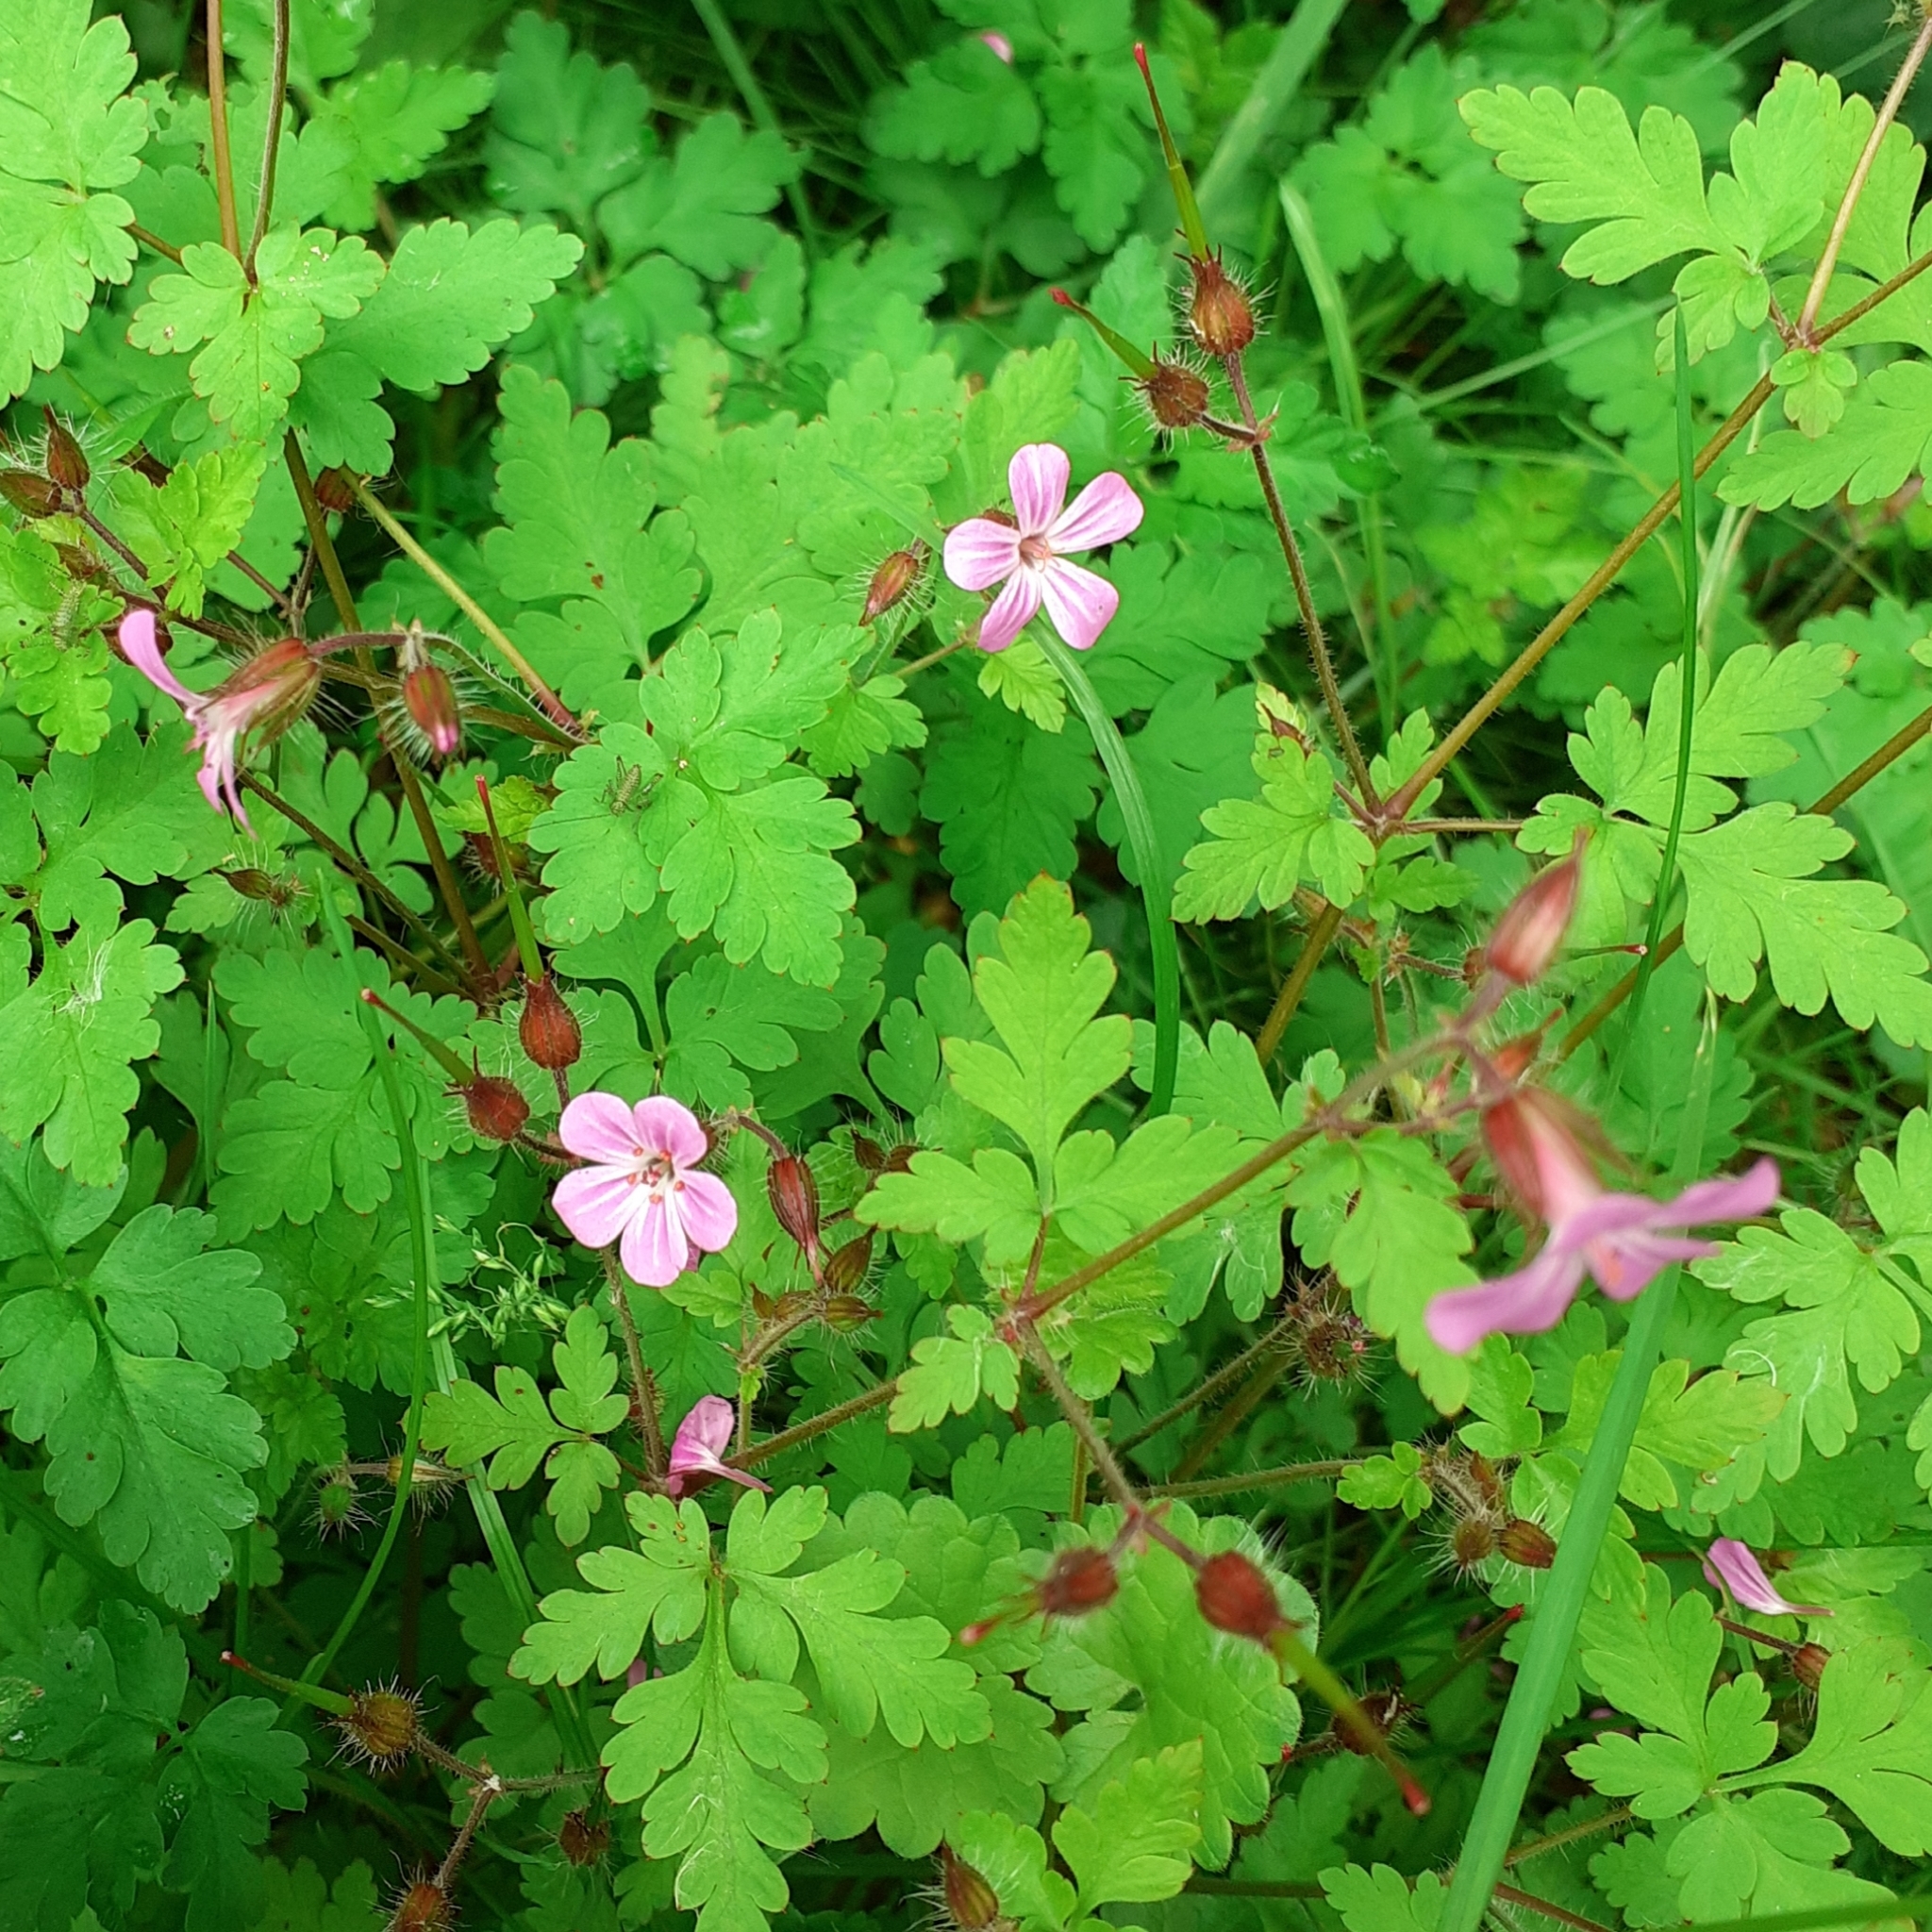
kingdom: Plantae
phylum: Tracheophyta
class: Magnoliopsida
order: Geraniales
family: Geraniaceae
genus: Geranium
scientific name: Geranium robertianum
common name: Herb-robert
